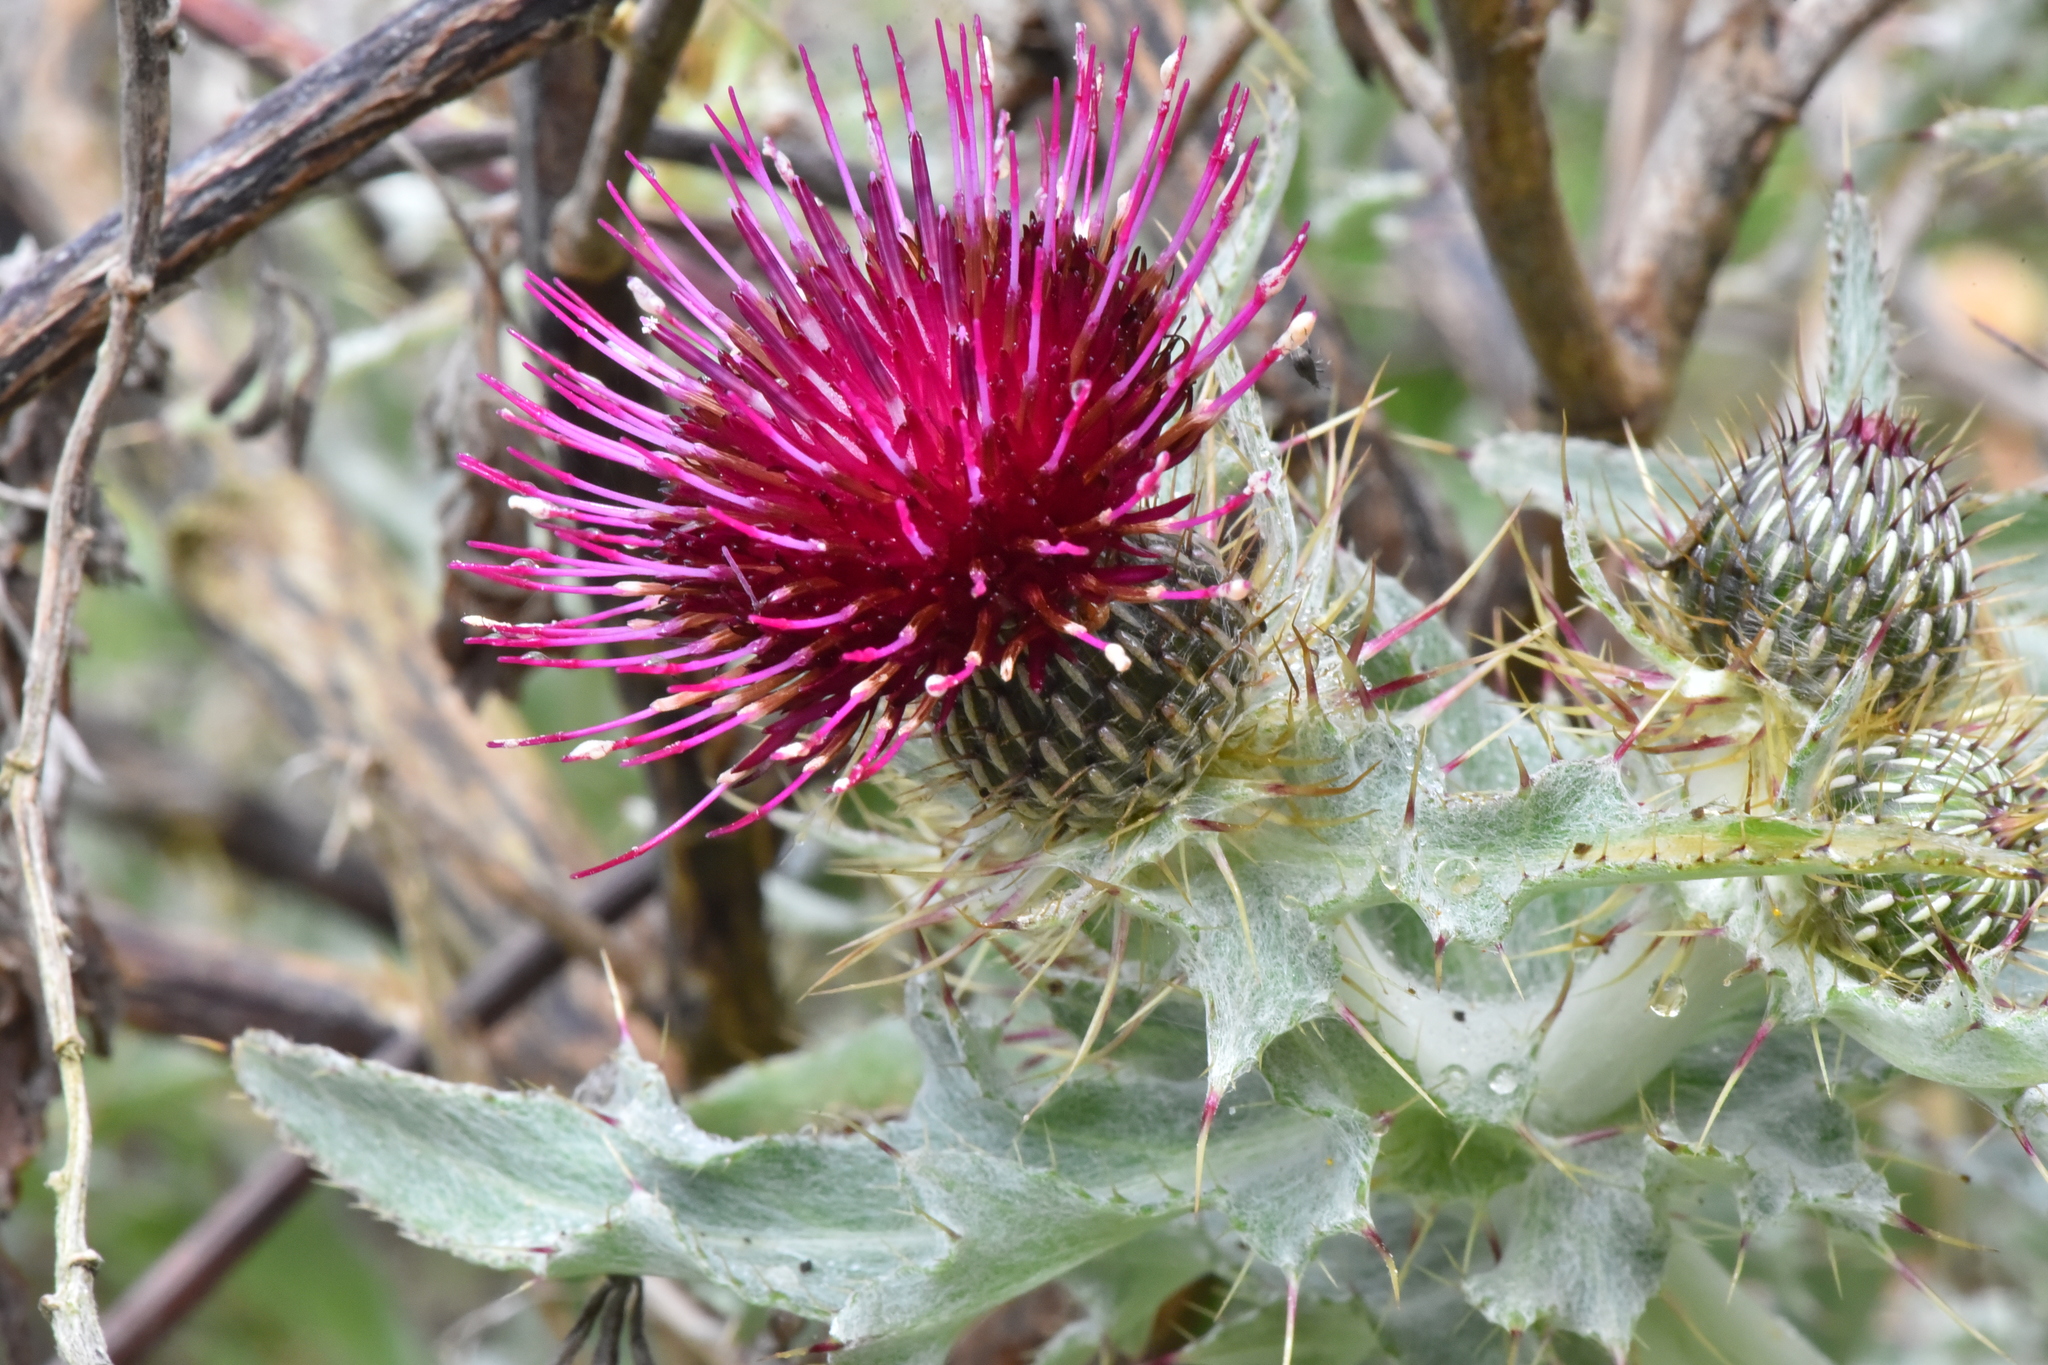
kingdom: Plantae
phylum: Tracheophyta
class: Magnoliopsida
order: Asterales
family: Asteraceae
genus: Cirsium
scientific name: Cirsium douglasii
